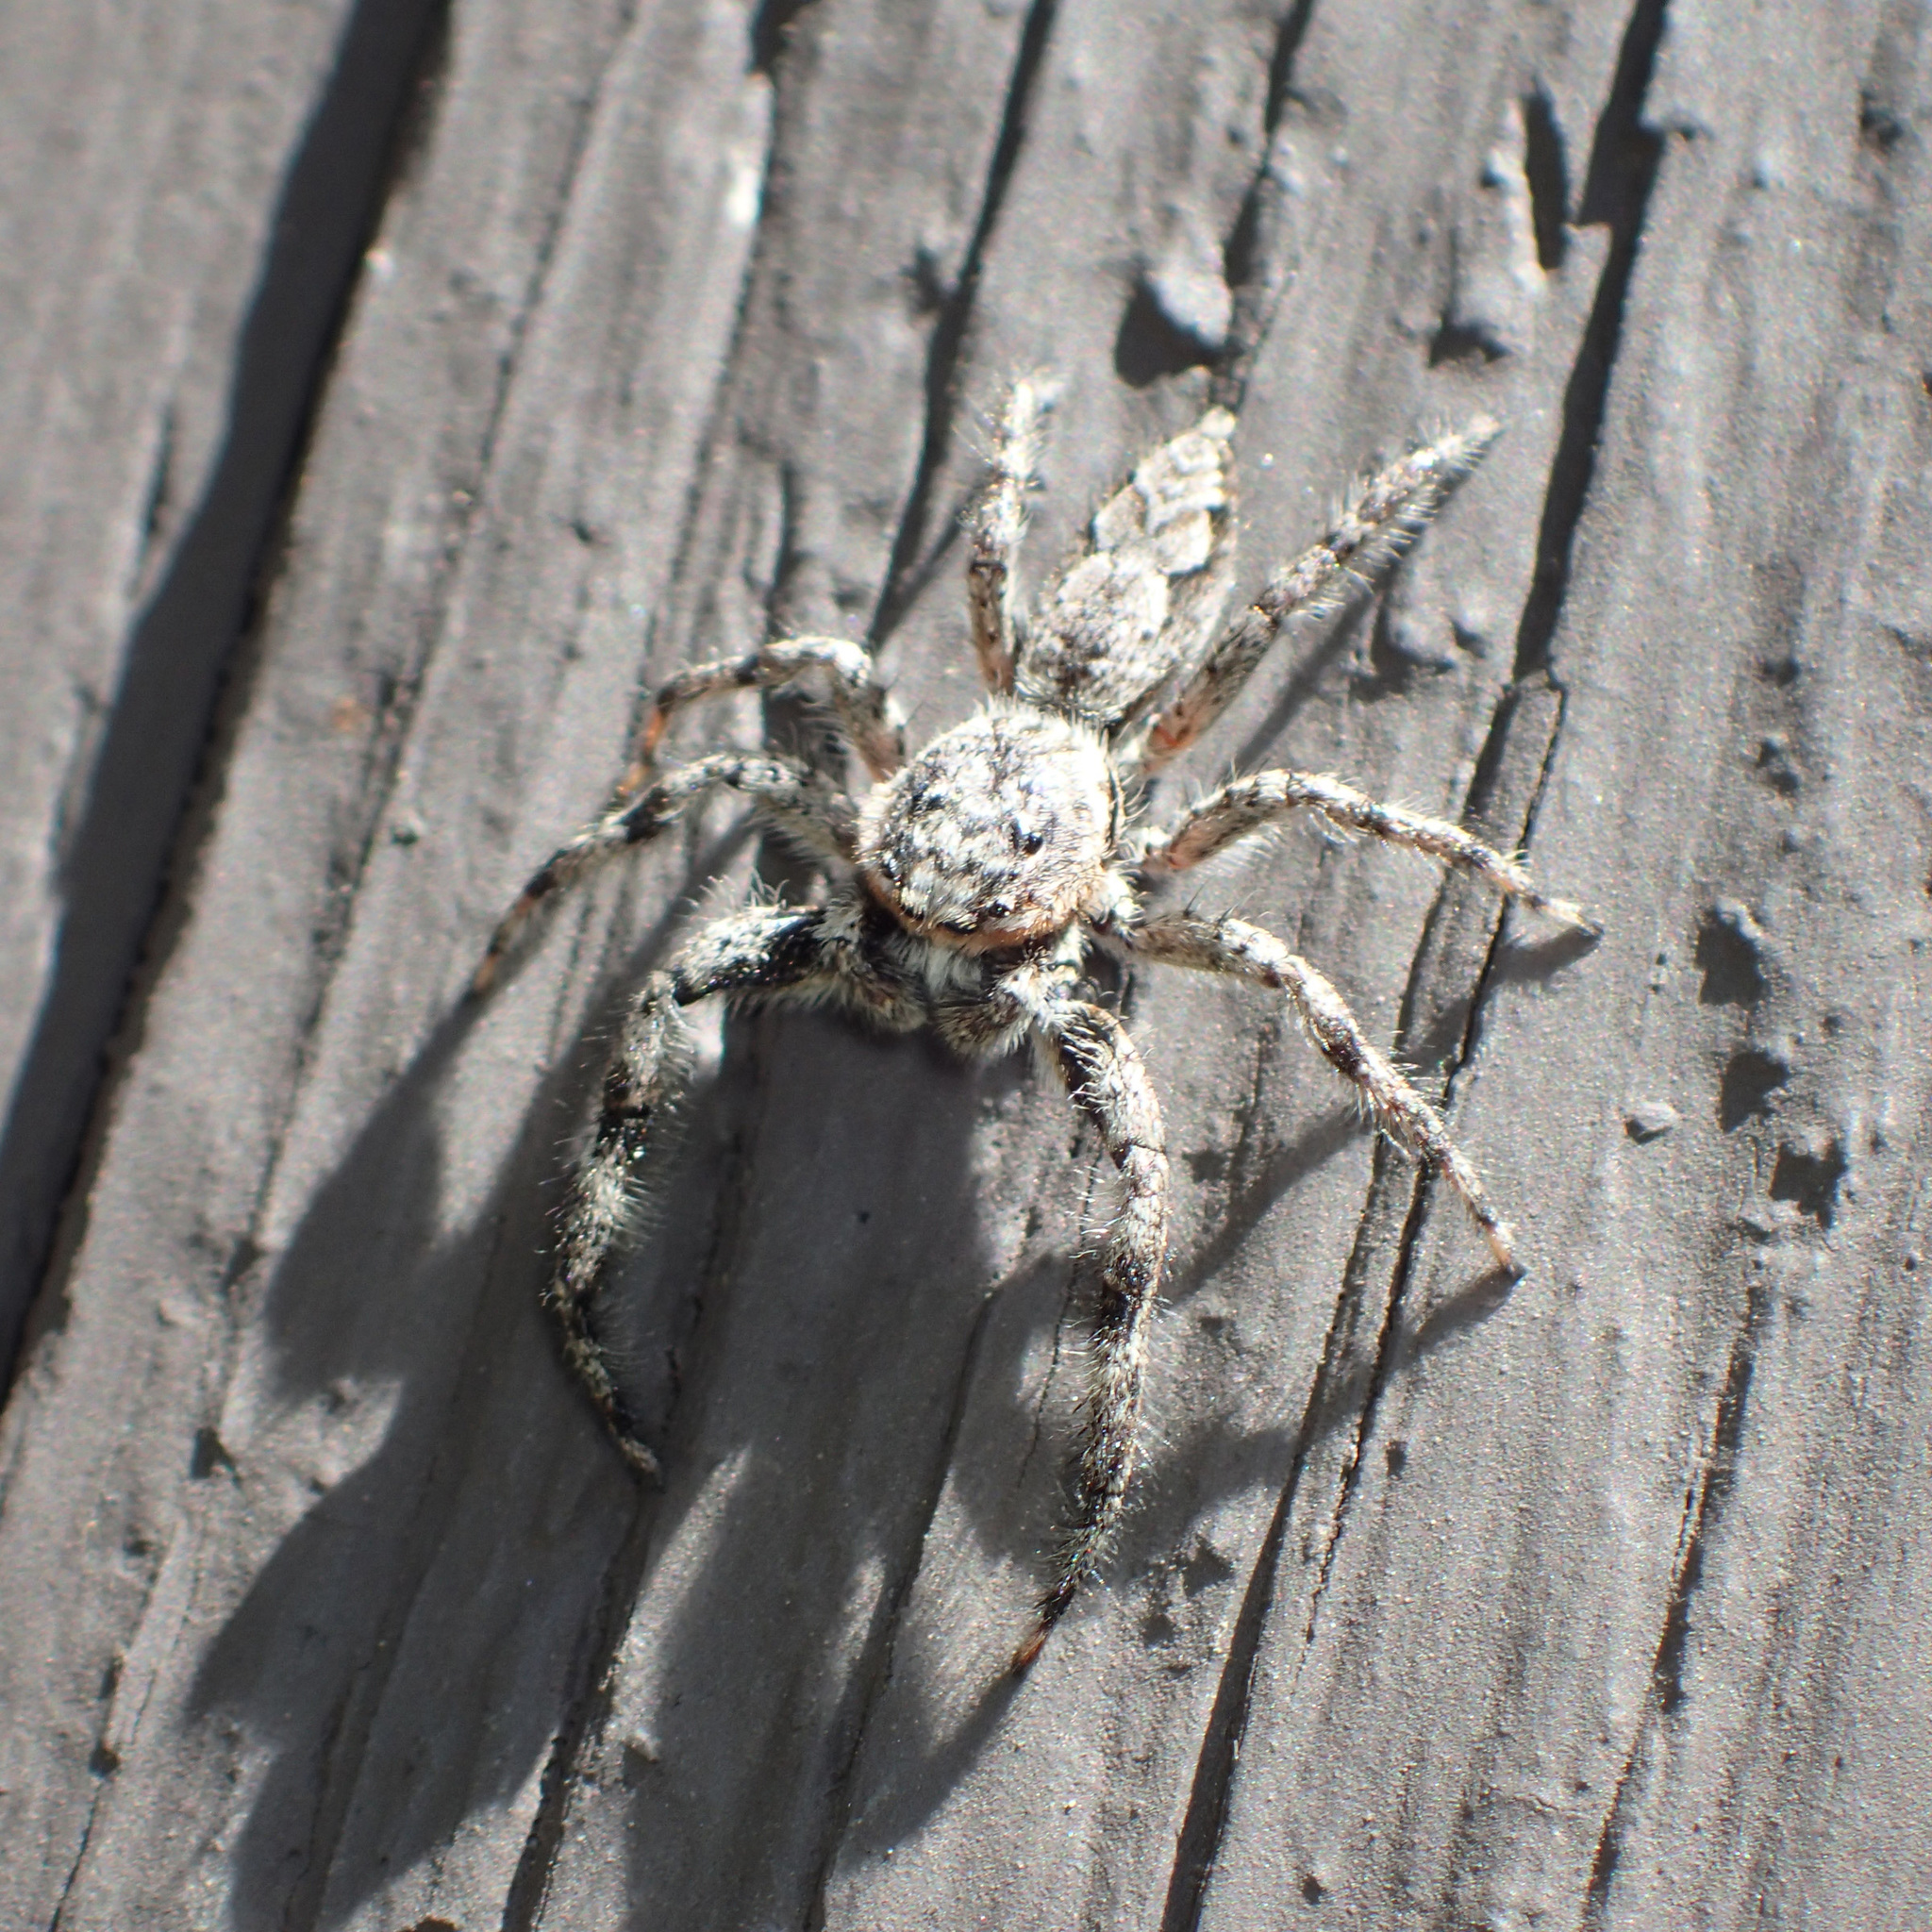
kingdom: Animalia
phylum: Arthropoda
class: Arachnida
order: Araneae
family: Salticidae
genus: Platycryptus
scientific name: Platycryptus undatus
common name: Tan jumping spider
